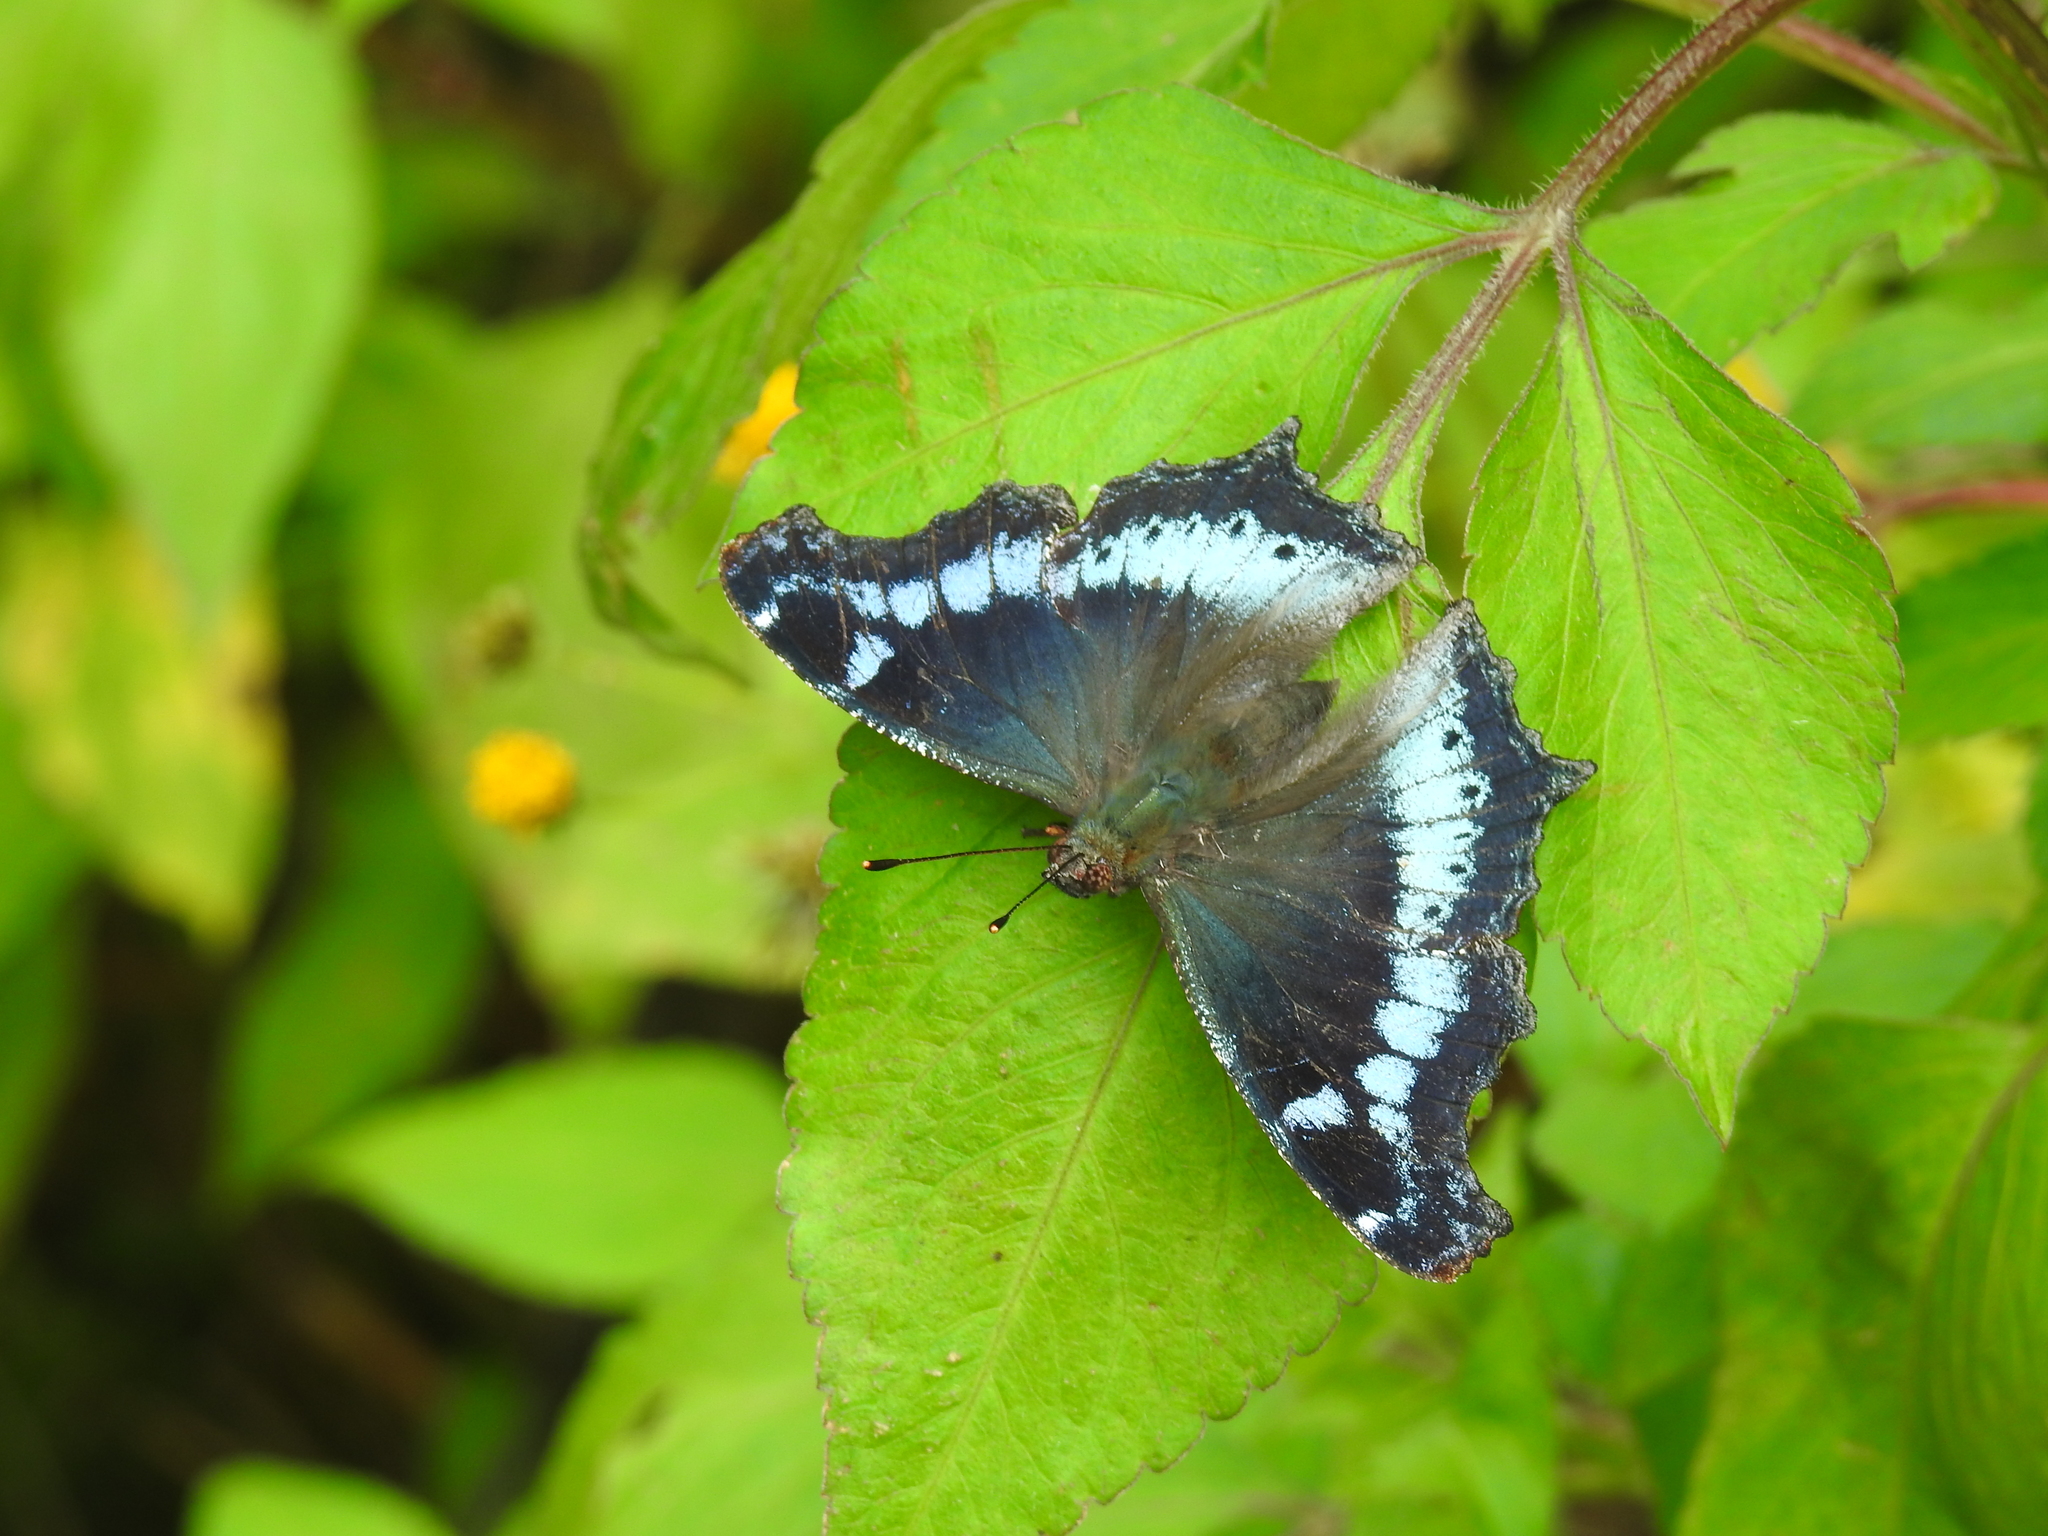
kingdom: Animalia
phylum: Arthropoda
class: Insecta
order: Lepidoptera
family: Nymphalidae
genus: Vanessa
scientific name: Vanessa Kaniska canace
